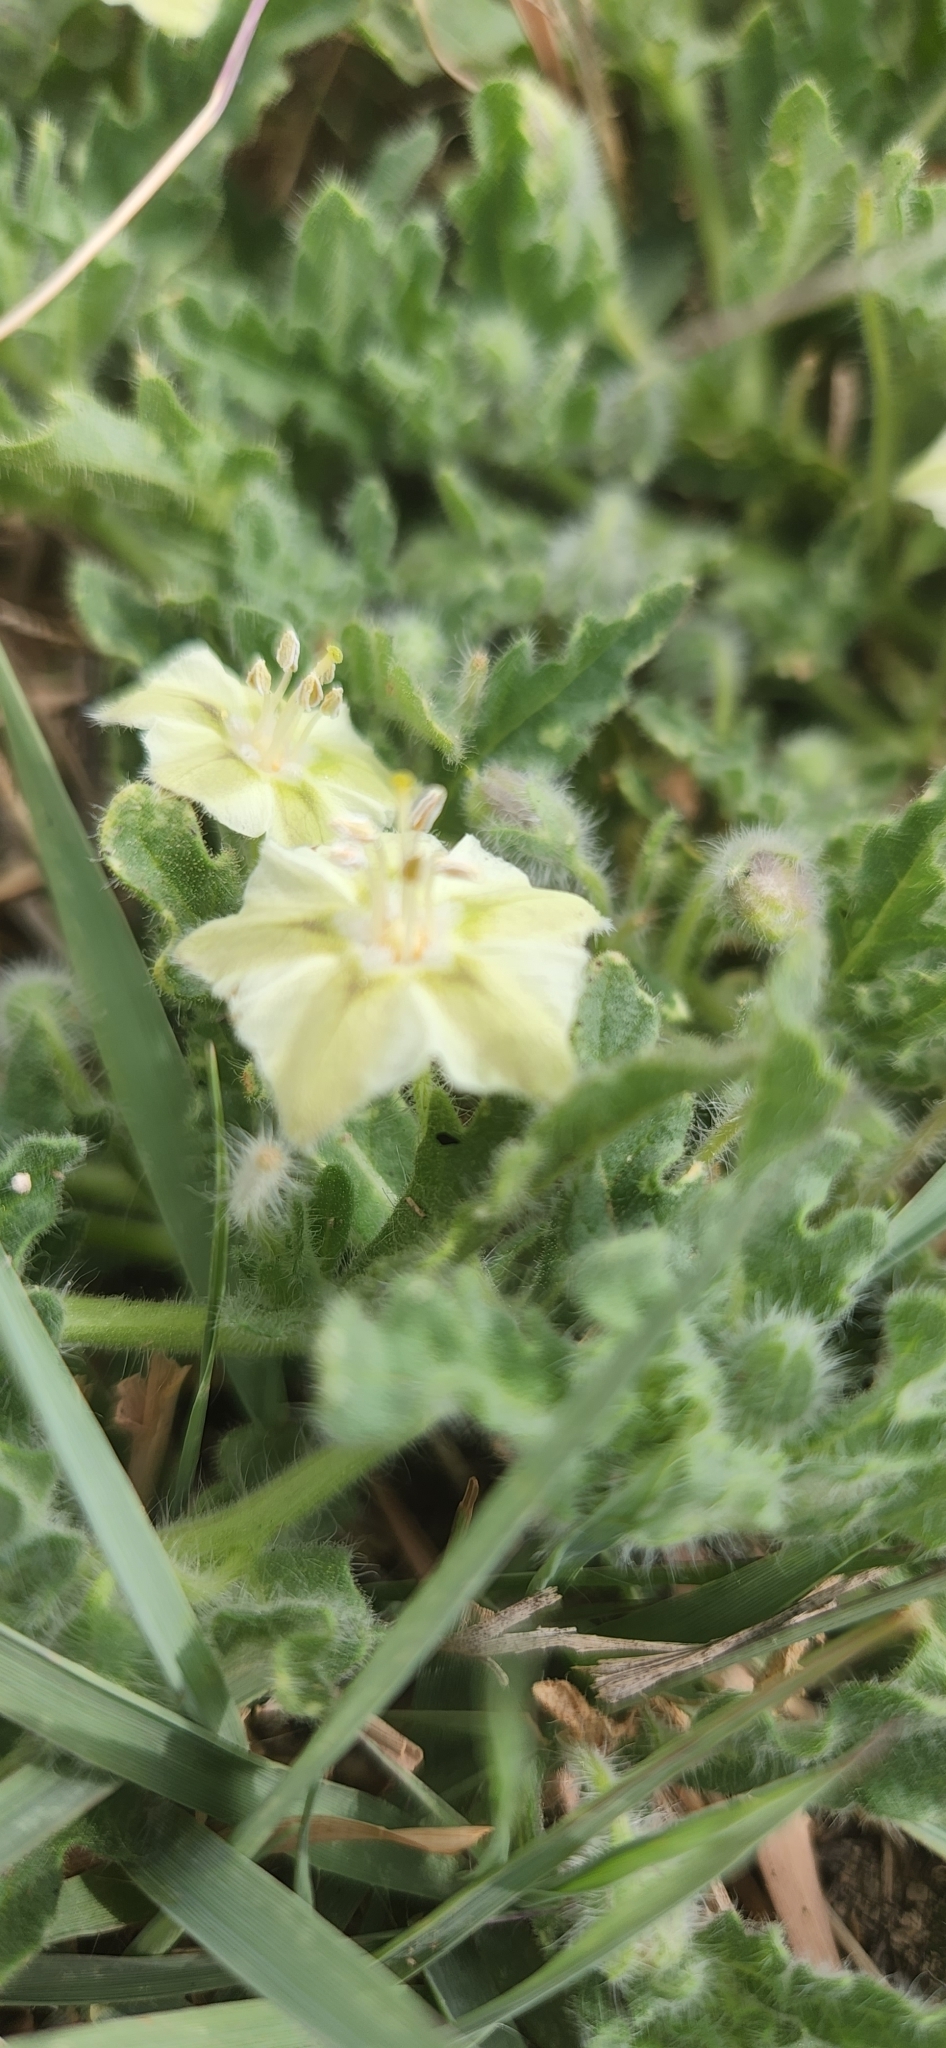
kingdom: Plantae
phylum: Tracheophyta
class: Magnoliopsida
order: Solanales
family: Solanaceae
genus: Chamaesaracha
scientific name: Chamaesaracha coniodes
